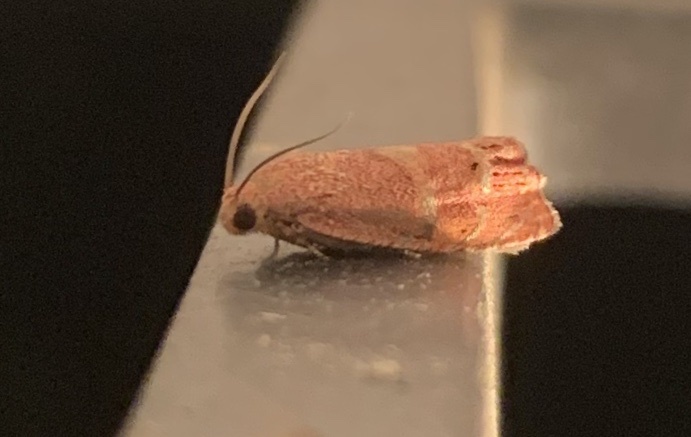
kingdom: Animalia
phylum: Arthropoda
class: Insecta
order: Lepidoptera
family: Tortricidae
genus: Cydia
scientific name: Cydia latiferreana
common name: Filbertworm moth
